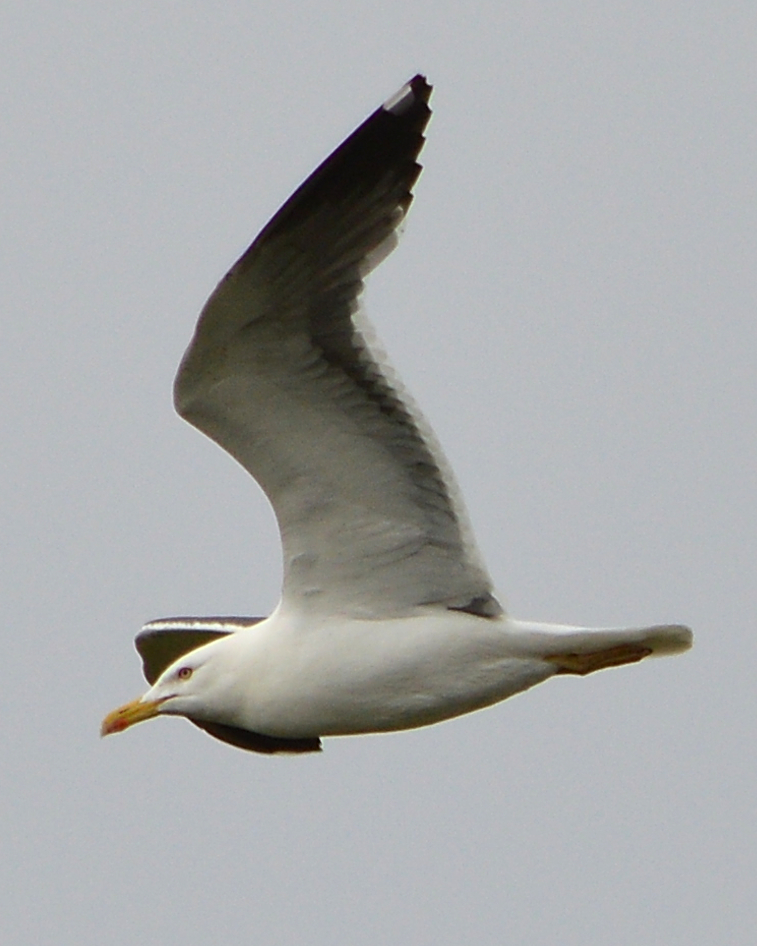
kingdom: Animalia
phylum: Chordata
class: Aves
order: Charadriiformes
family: Laridae
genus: Larus
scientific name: Larus fuscus
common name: Lesser black-backed gull
